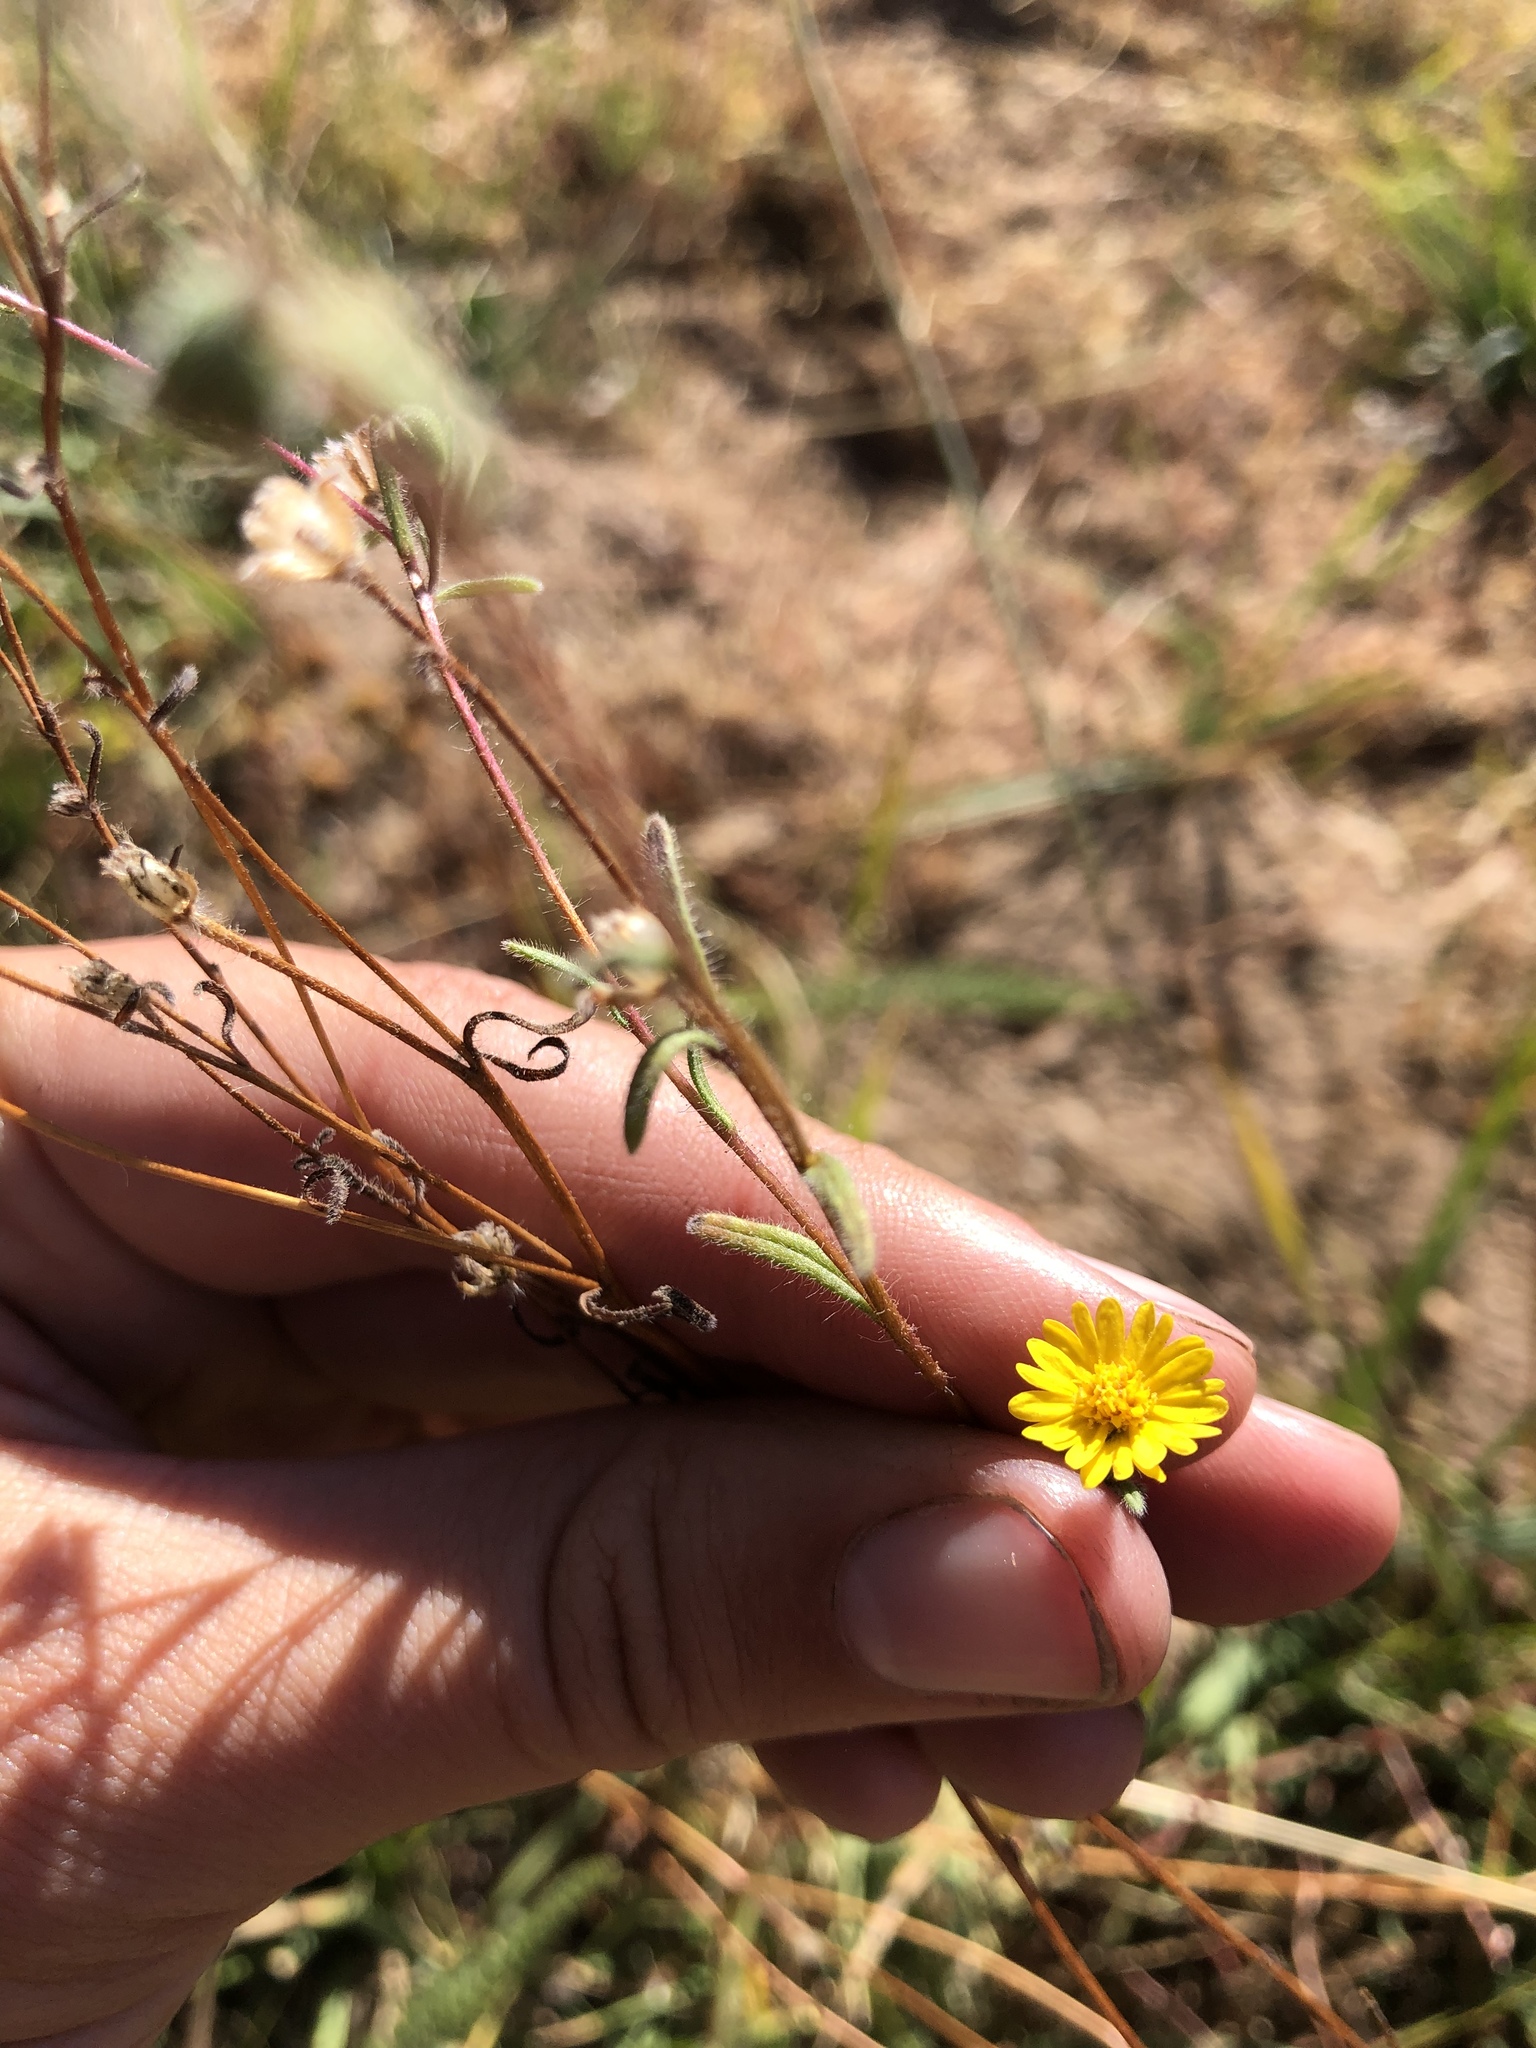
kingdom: Plantae
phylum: Tracheophyta
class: Magnoliopsida
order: Asterales
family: Asteraceae
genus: Madia
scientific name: Madia elegans
